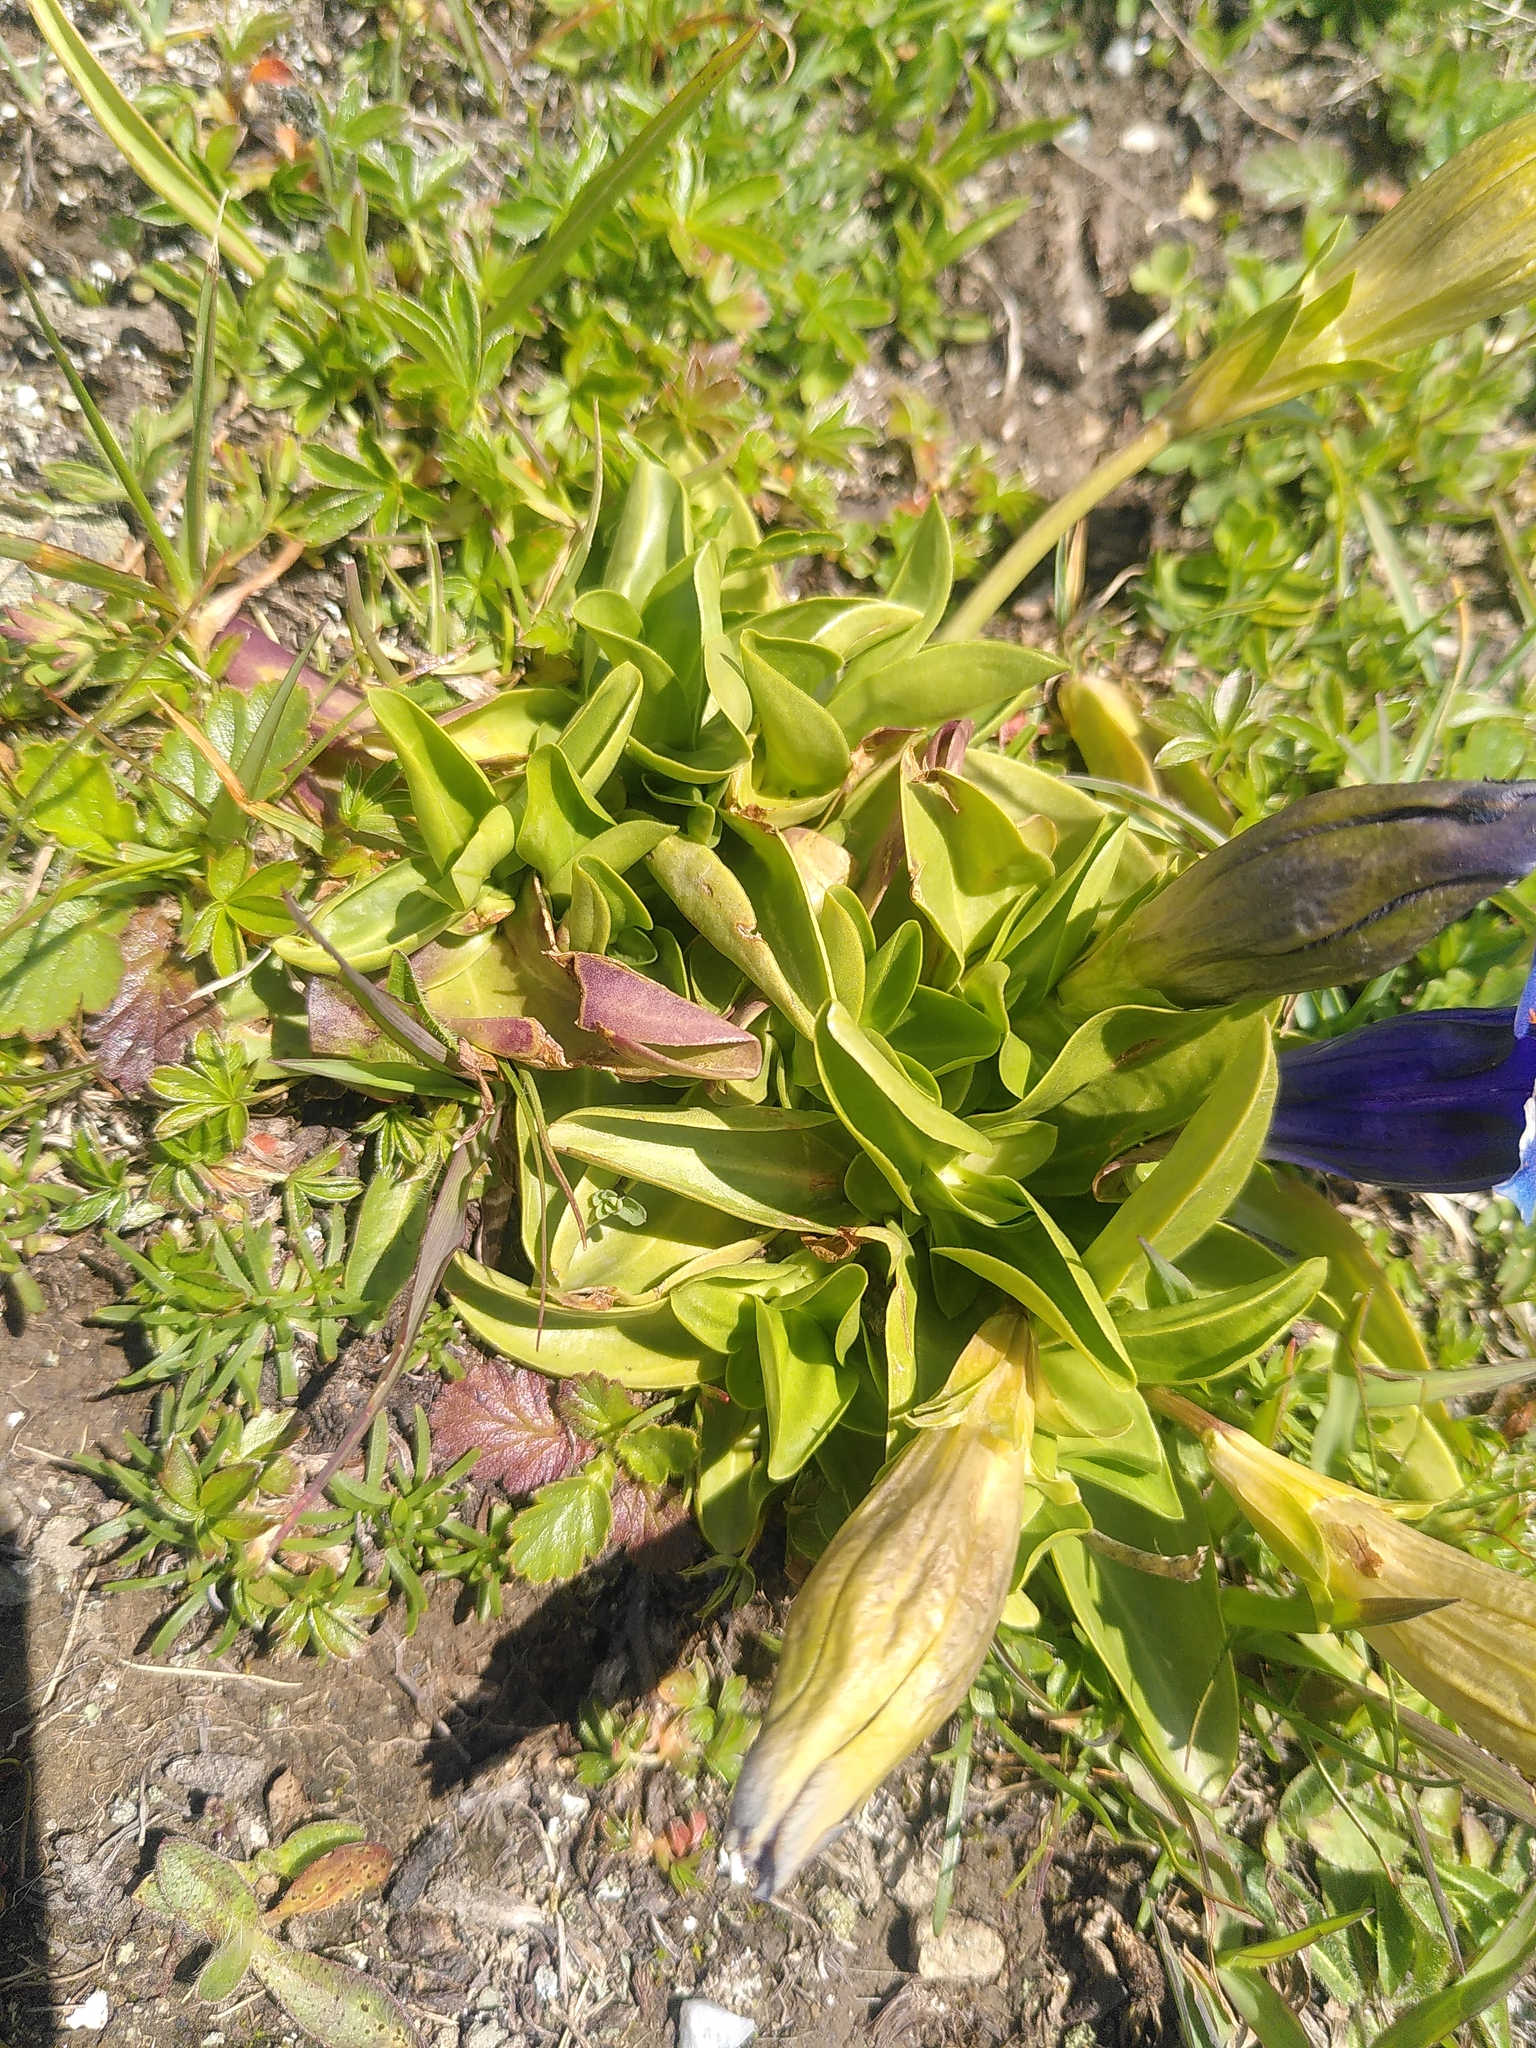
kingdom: Plantae
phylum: Tracheophyta
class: Magnoliopsida
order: Gentianales
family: Gentianaceae
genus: Gentiana
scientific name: Gentiana acaulis
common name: Trumpet gentian
